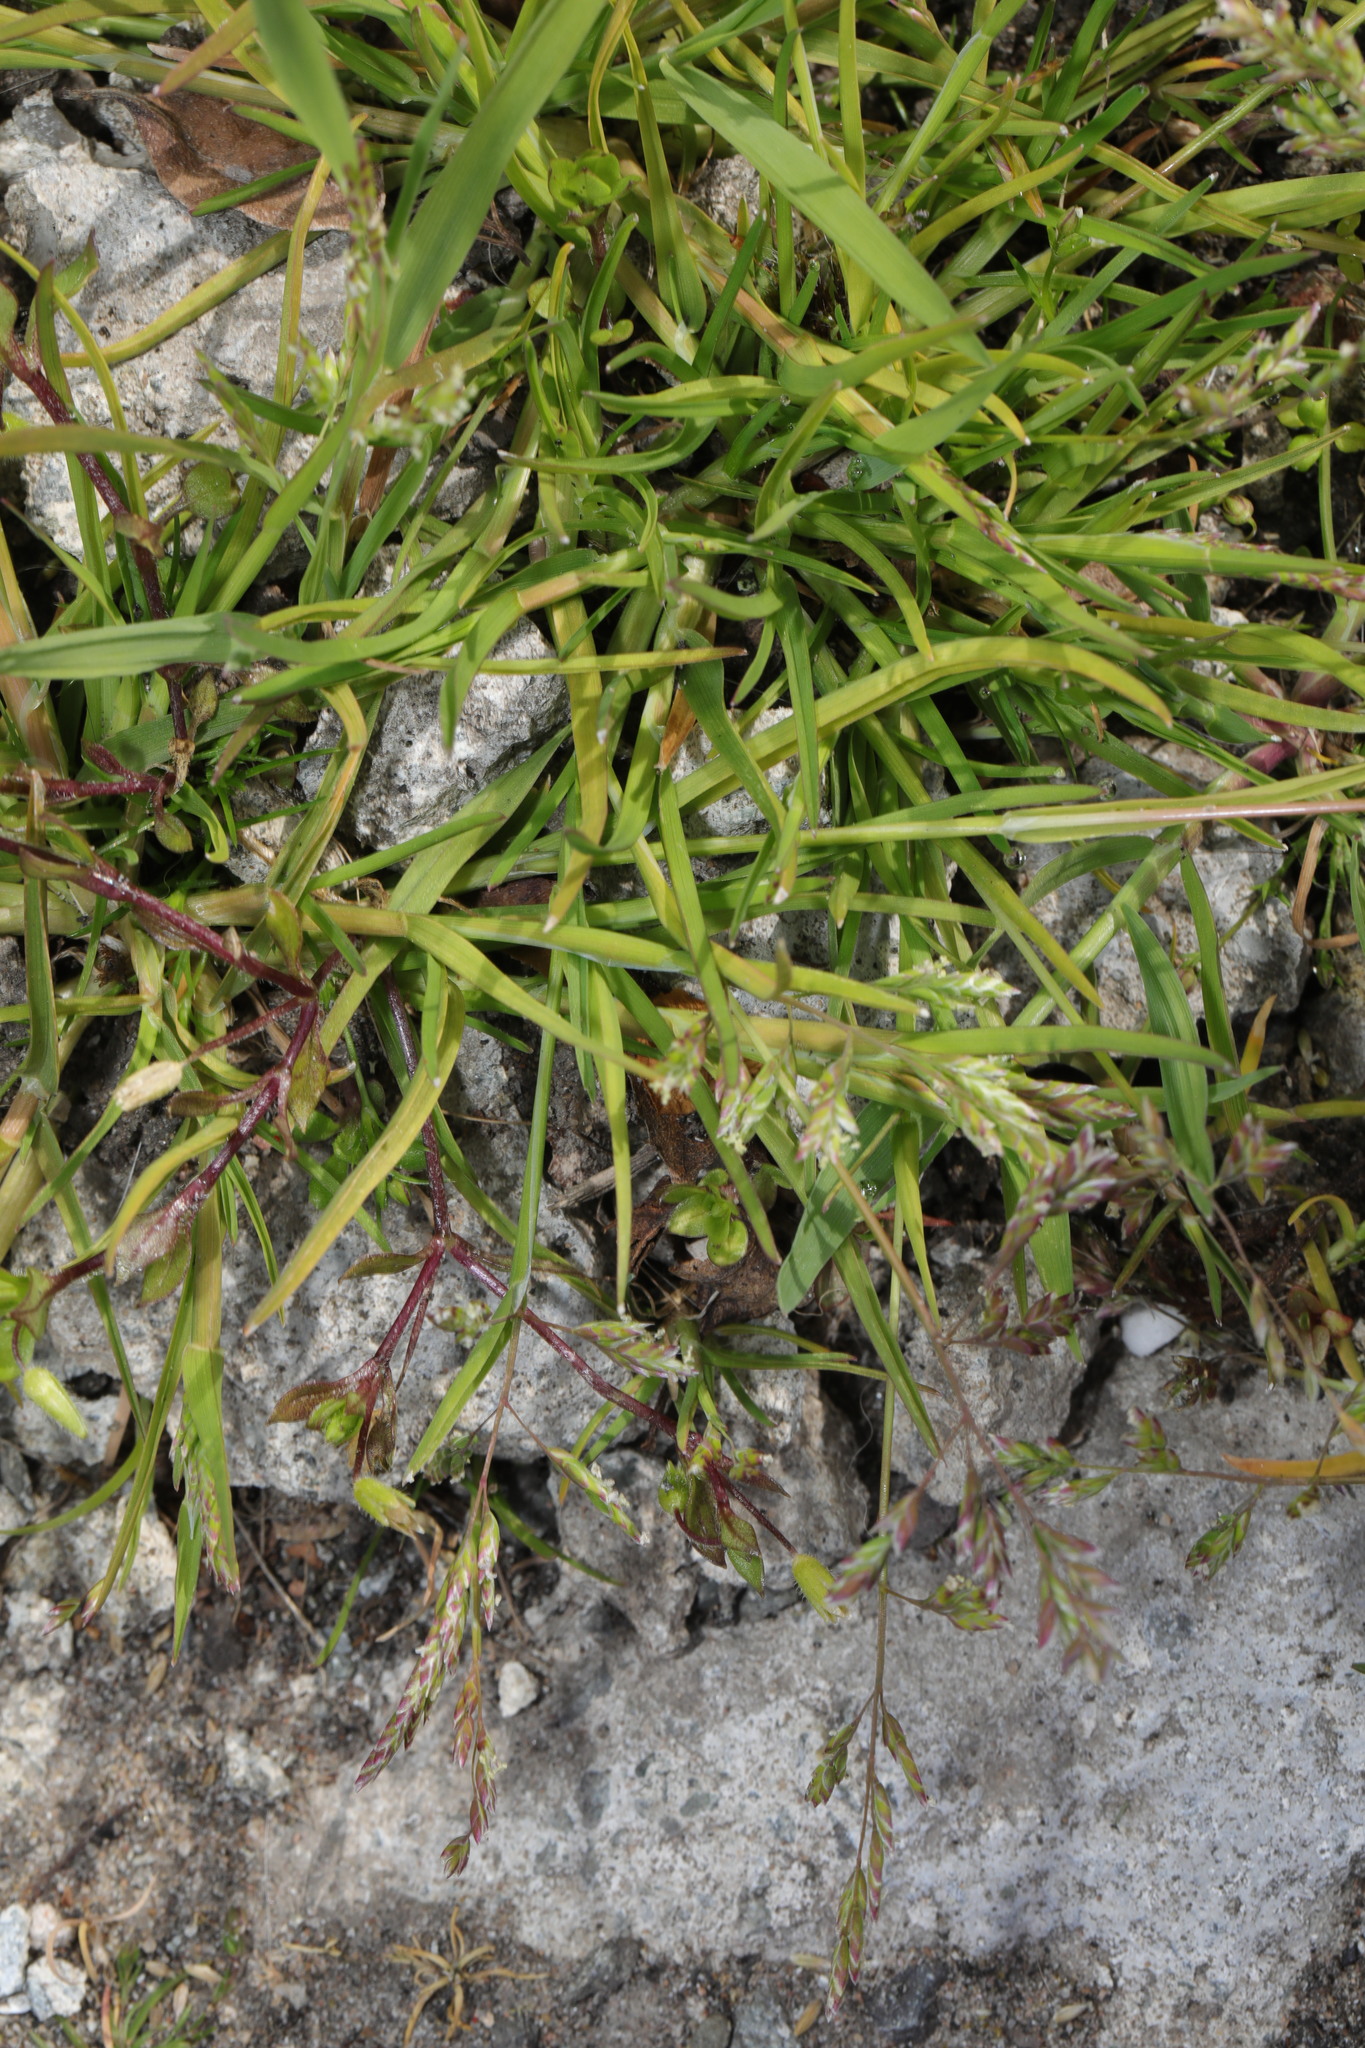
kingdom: Plantae
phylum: Tracheophyta
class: Liliopsida
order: Poales
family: Poaceae
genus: Poa
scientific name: Poa annua
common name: Annual bluegrass
